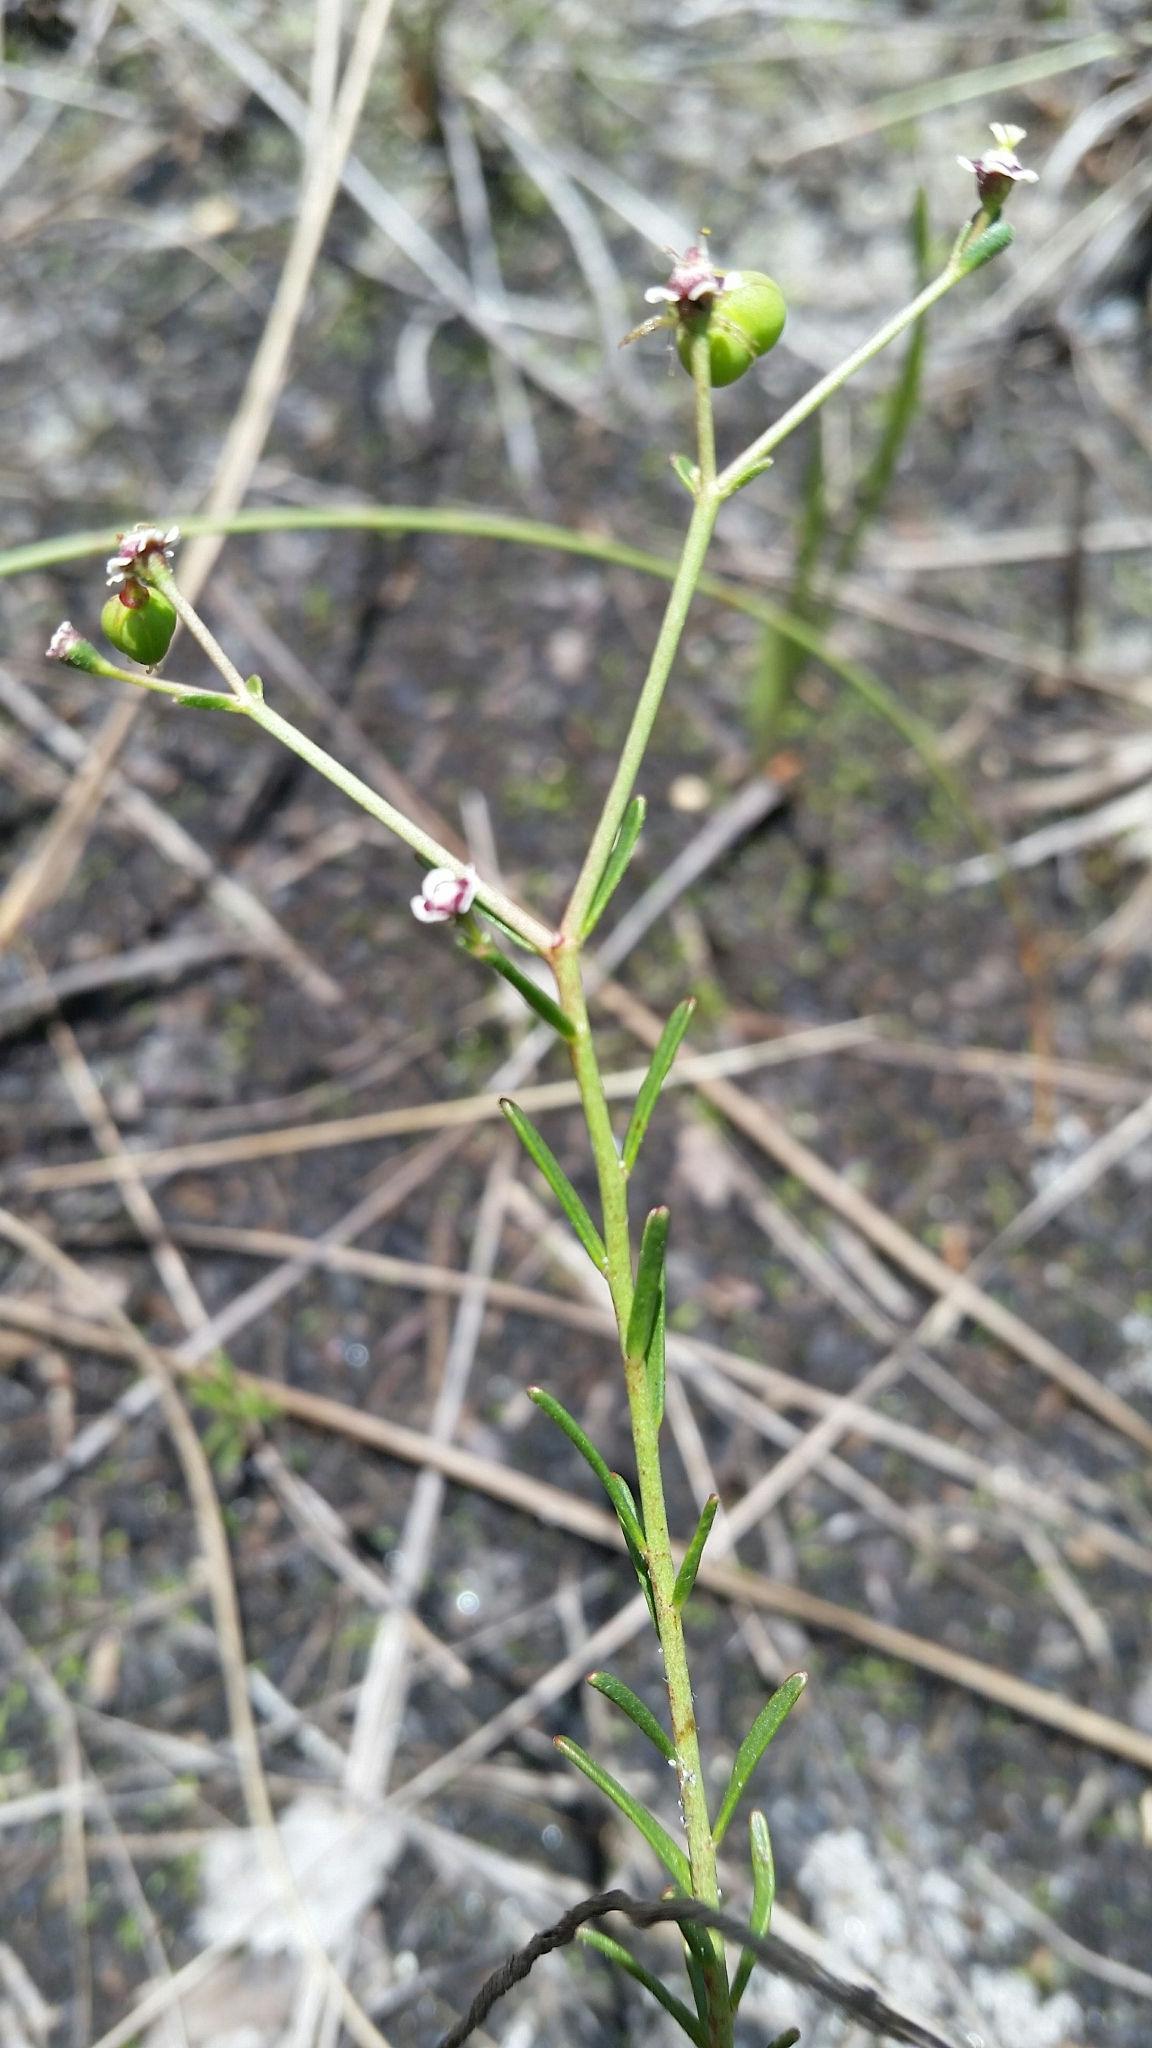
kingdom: Plantae
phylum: Tracheophyta
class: Magnoliopsida
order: Malpighiales
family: Euphorbiaceae
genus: Euphorbia
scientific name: Euphorbia polyphylla
